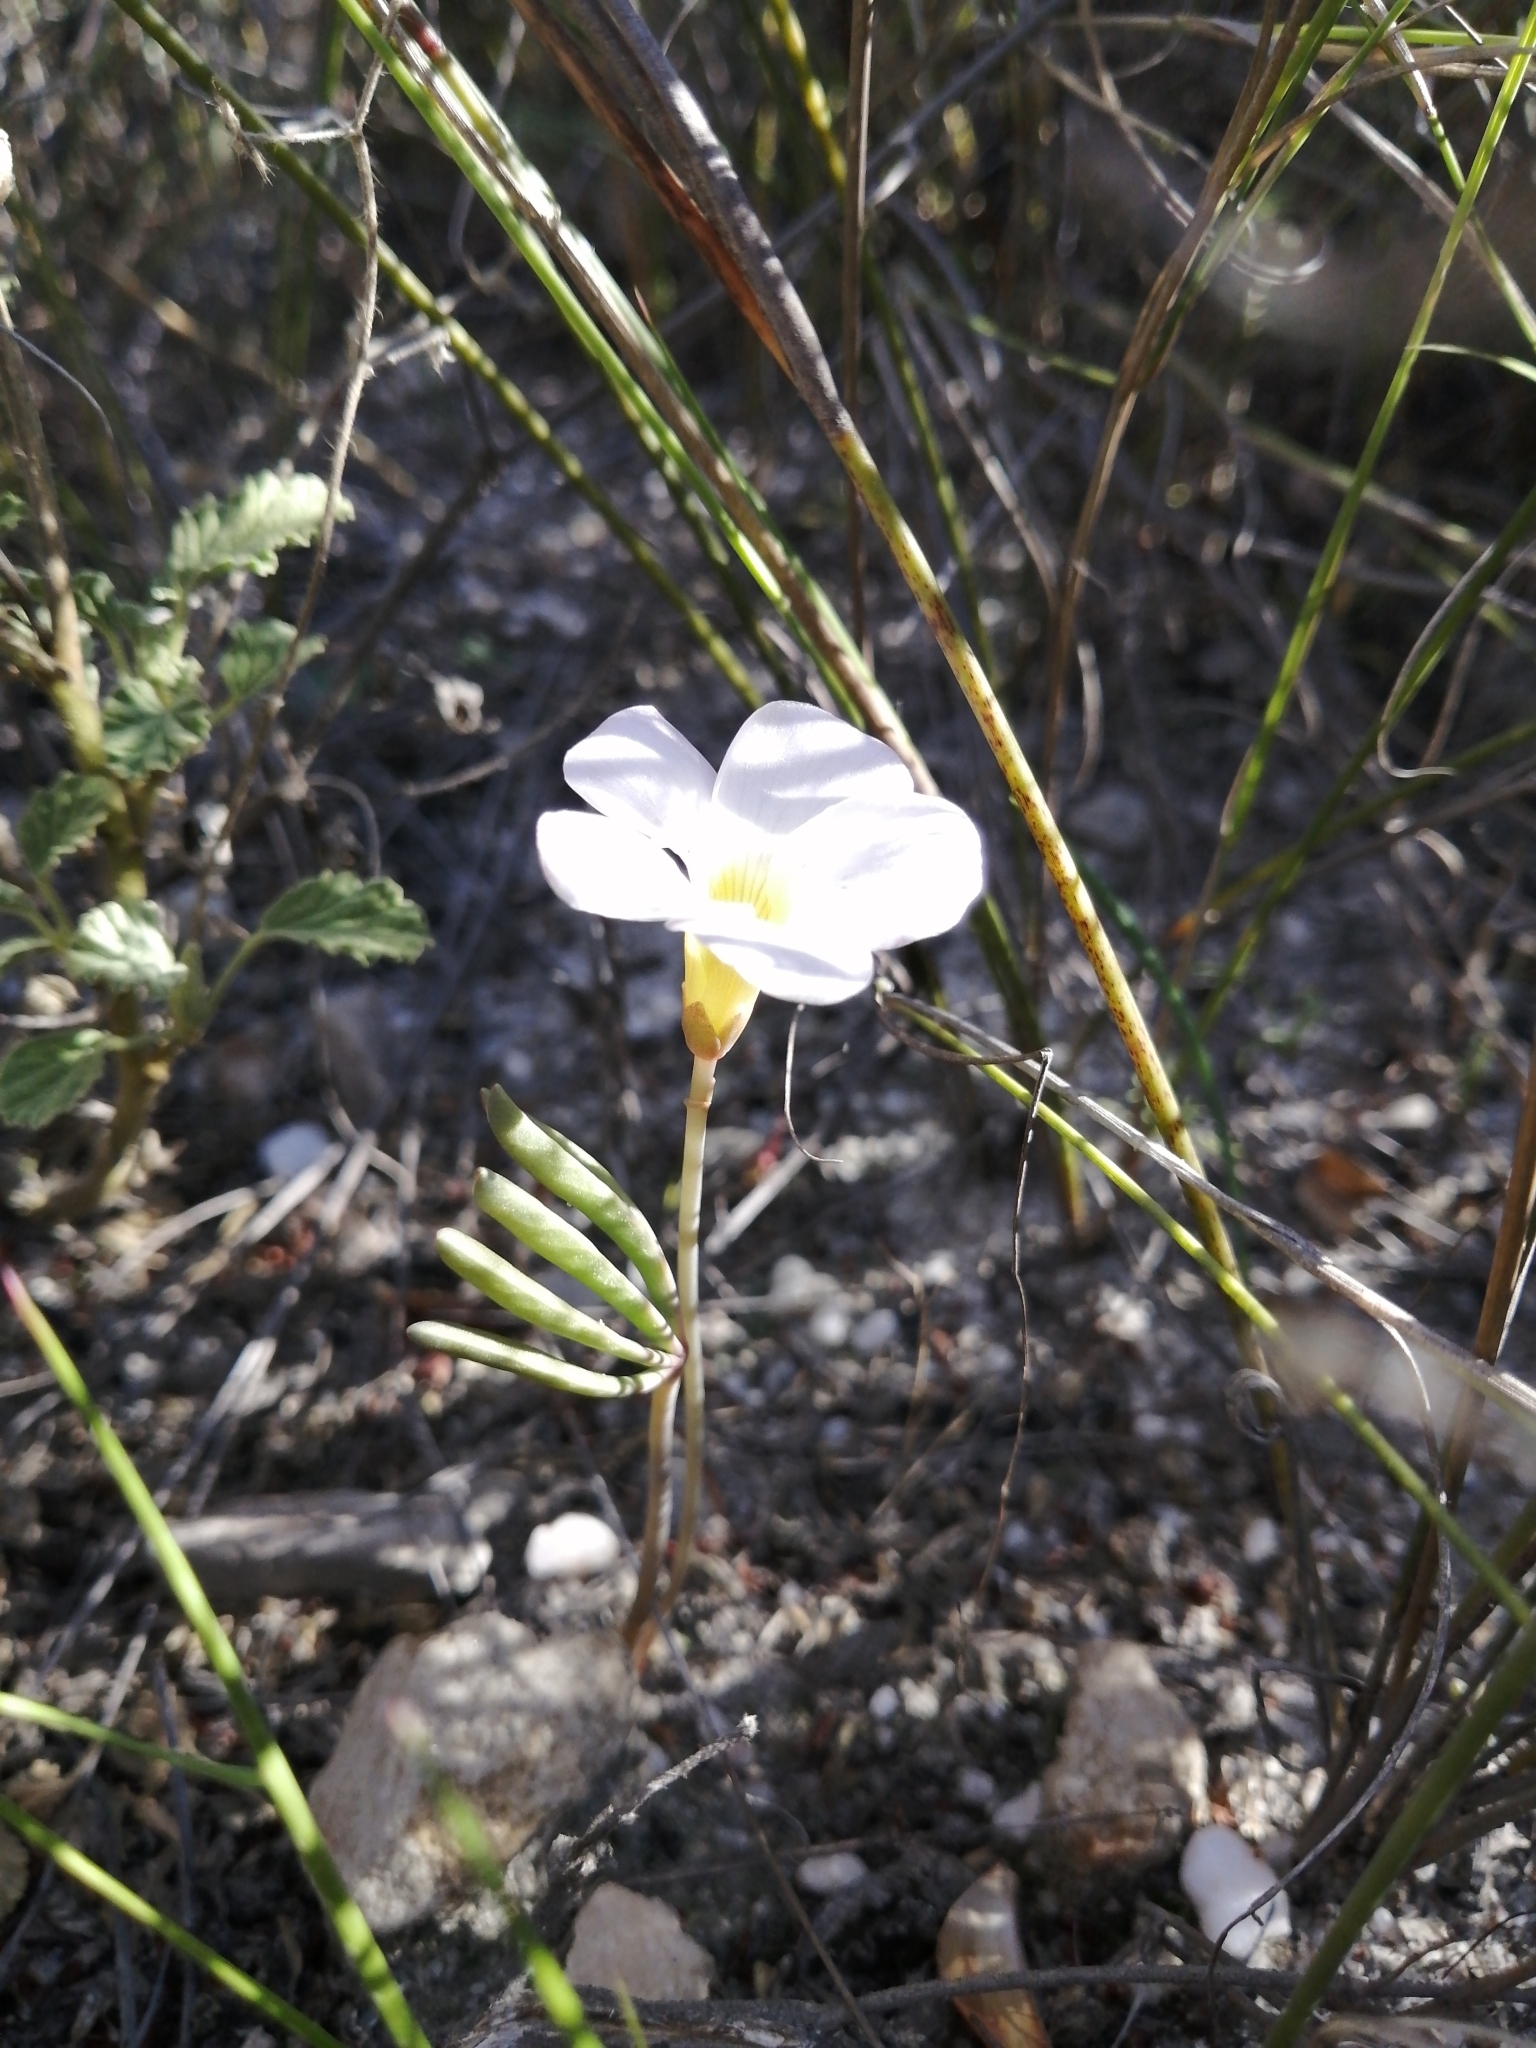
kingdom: Plantae
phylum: Tracheophyta
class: Magnoliopsida
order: Oxalidales
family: Oxalidaceae
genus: Oxalis
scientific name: Oxalis flava
